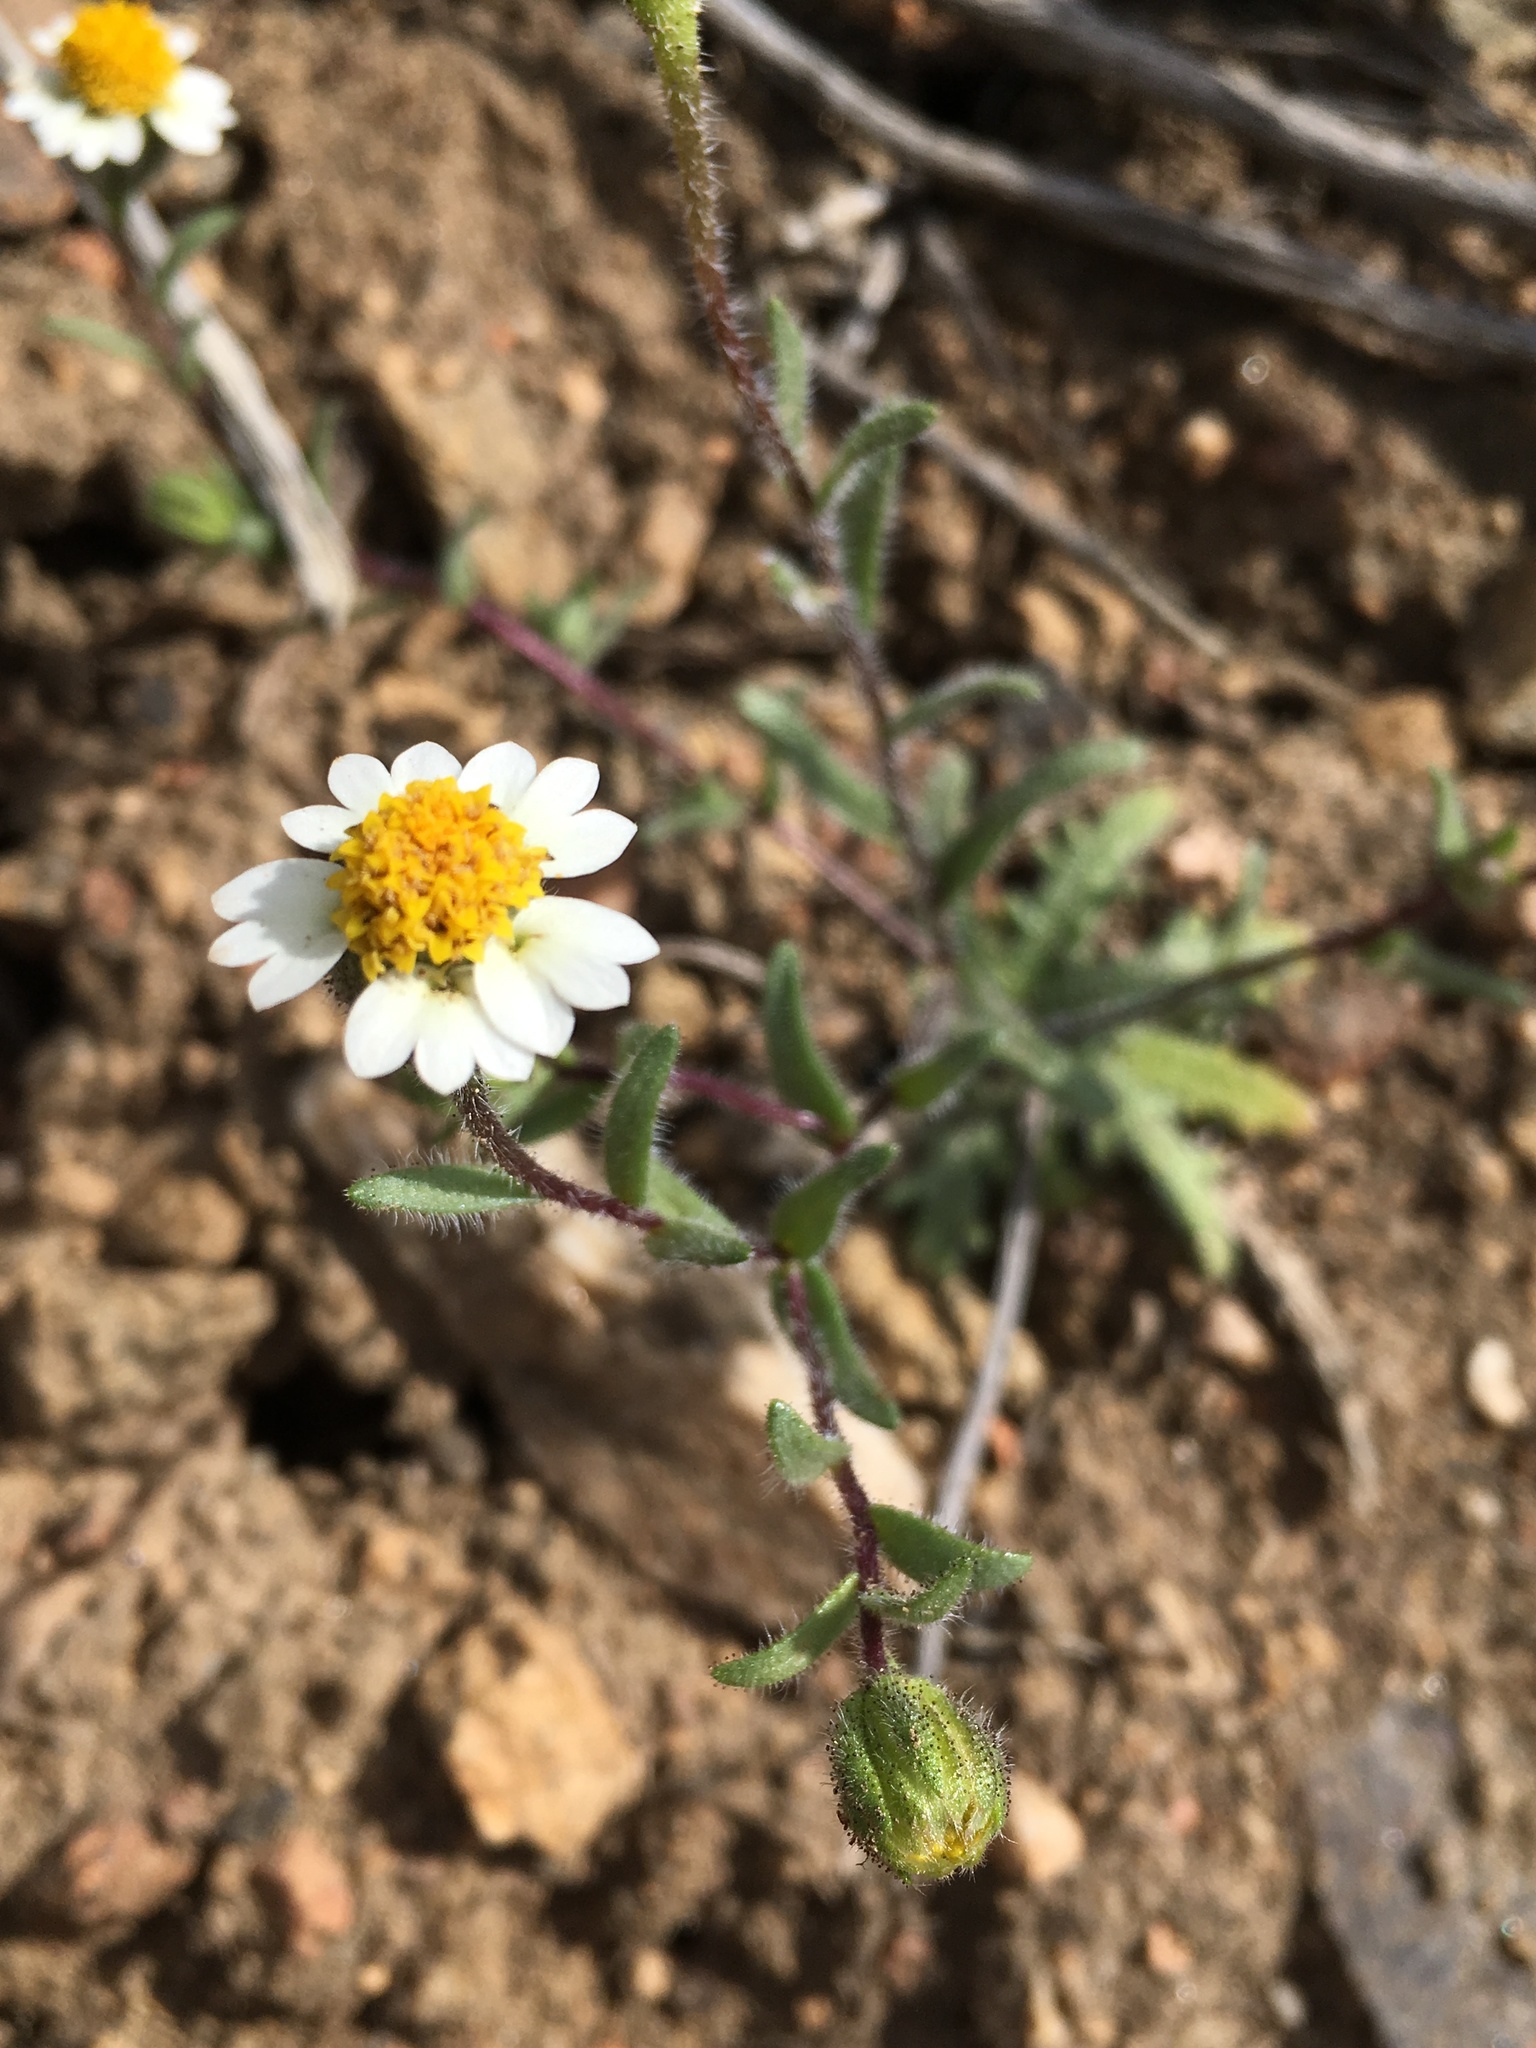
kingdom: Plantae
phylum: Tracheophyta
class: Magnoliopsida
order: Asterales
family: Asteraceae
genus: Layia
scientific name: Layia glandulosa
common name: White layia
